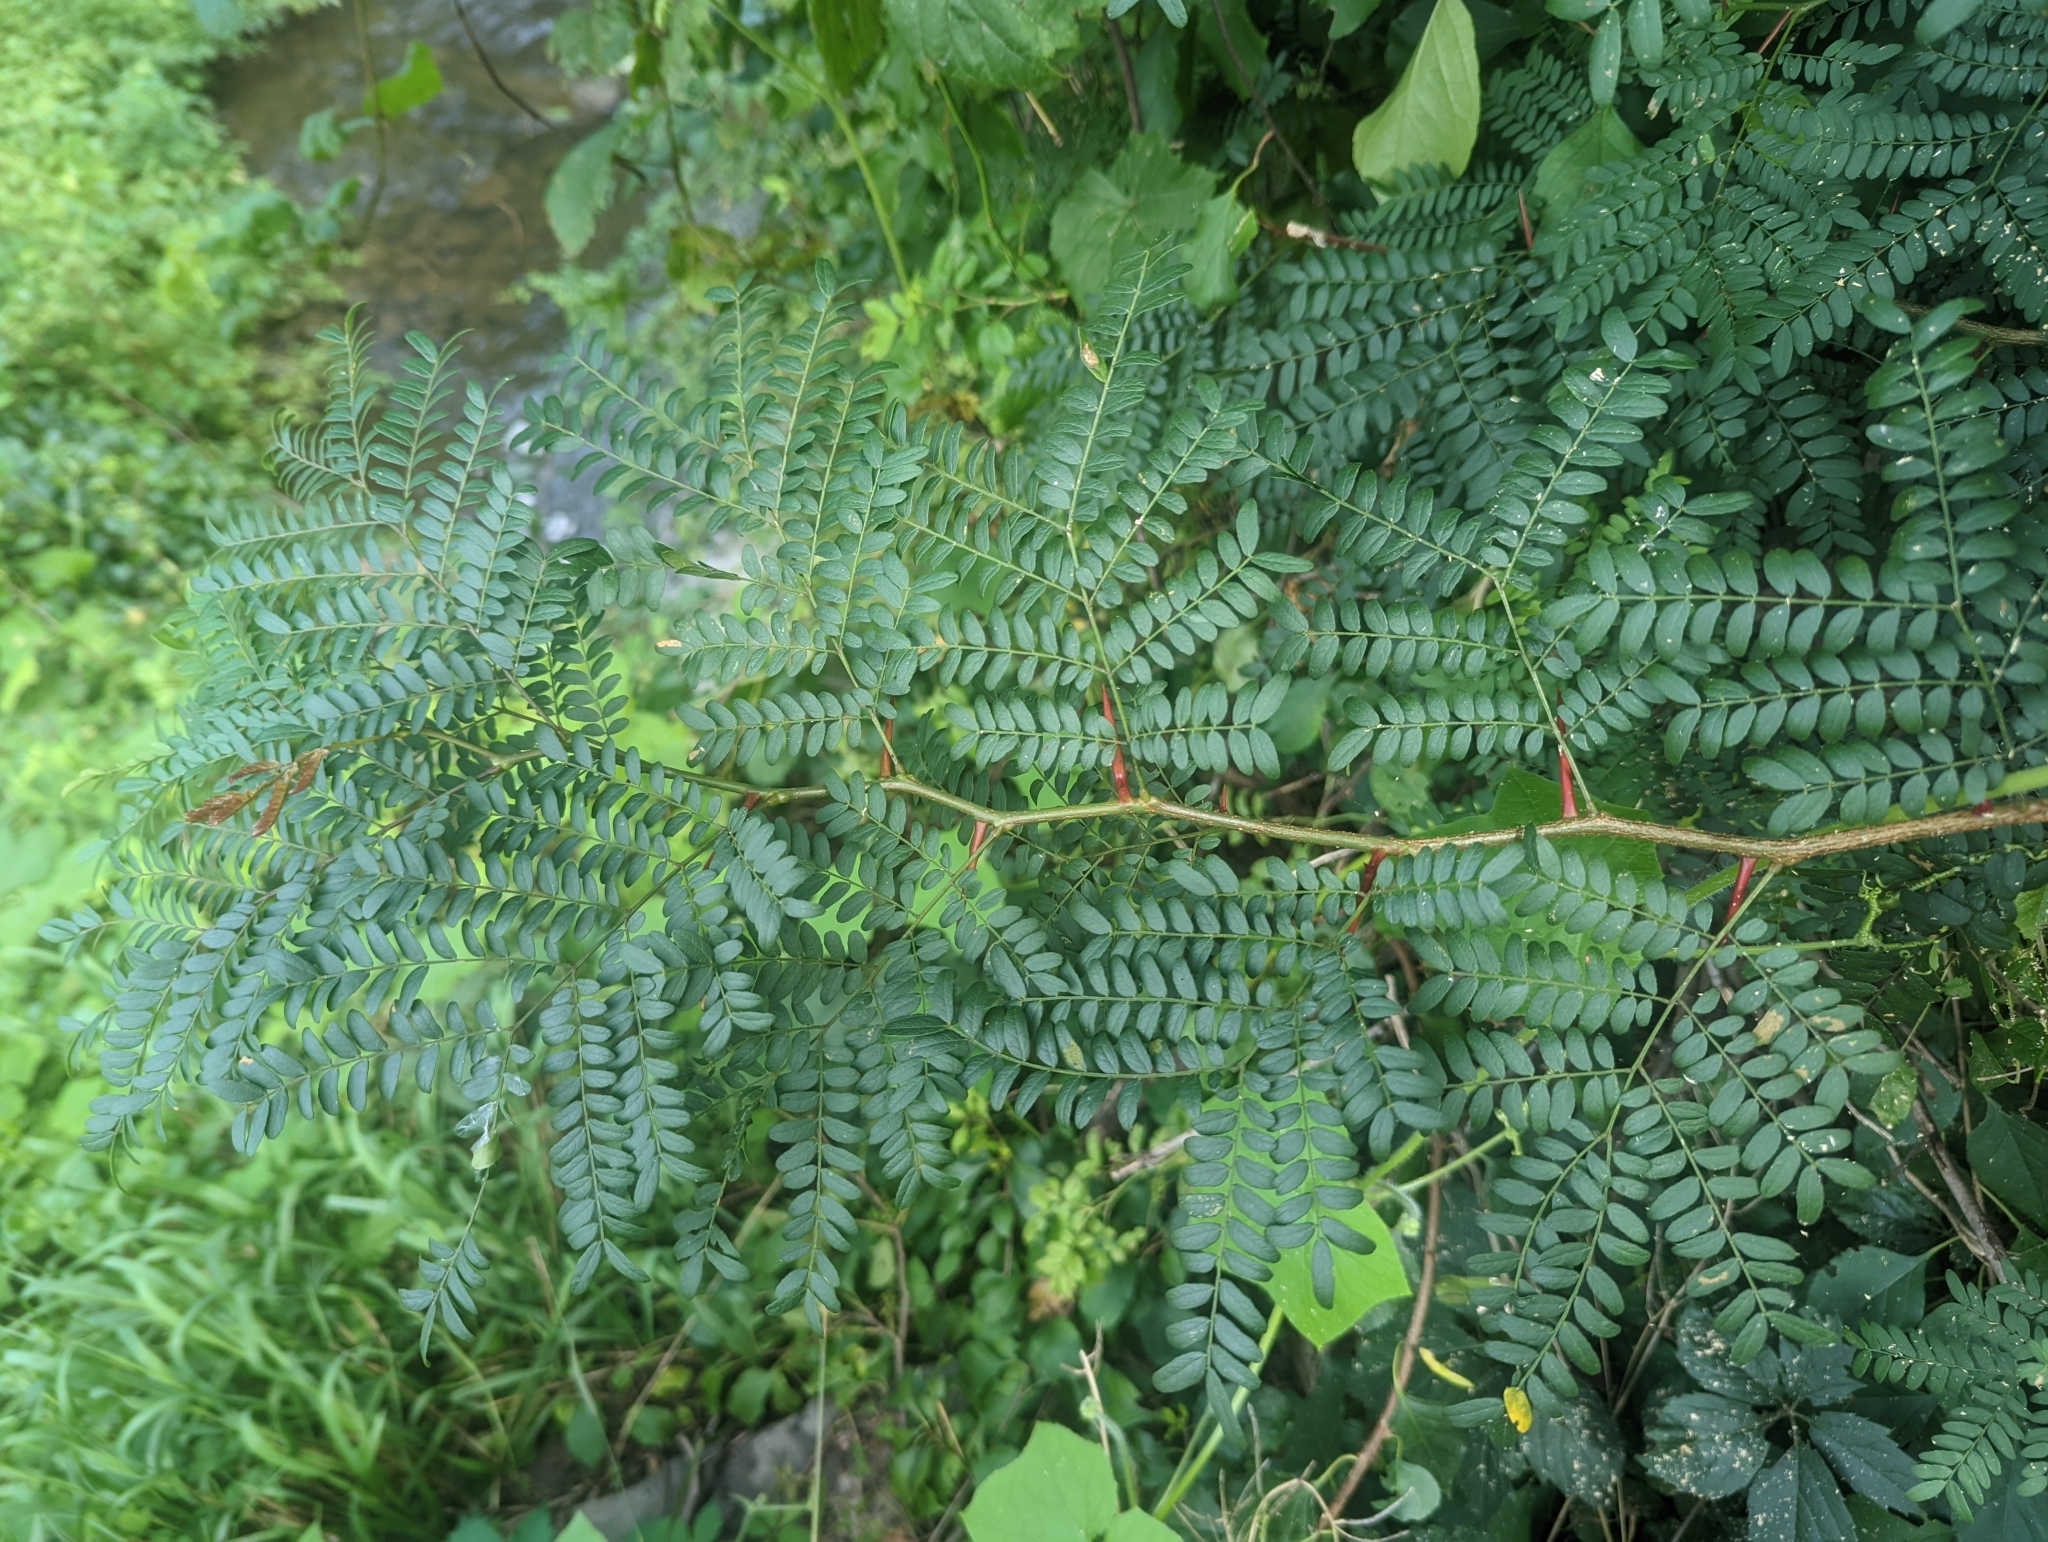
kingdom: Plantae
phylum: Tracheophyta
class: Magnoliopsida
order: Fabales
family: Fabaceae
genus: Gleditsia
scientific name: Gleditsia triacanthos
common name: Common honeylocust
